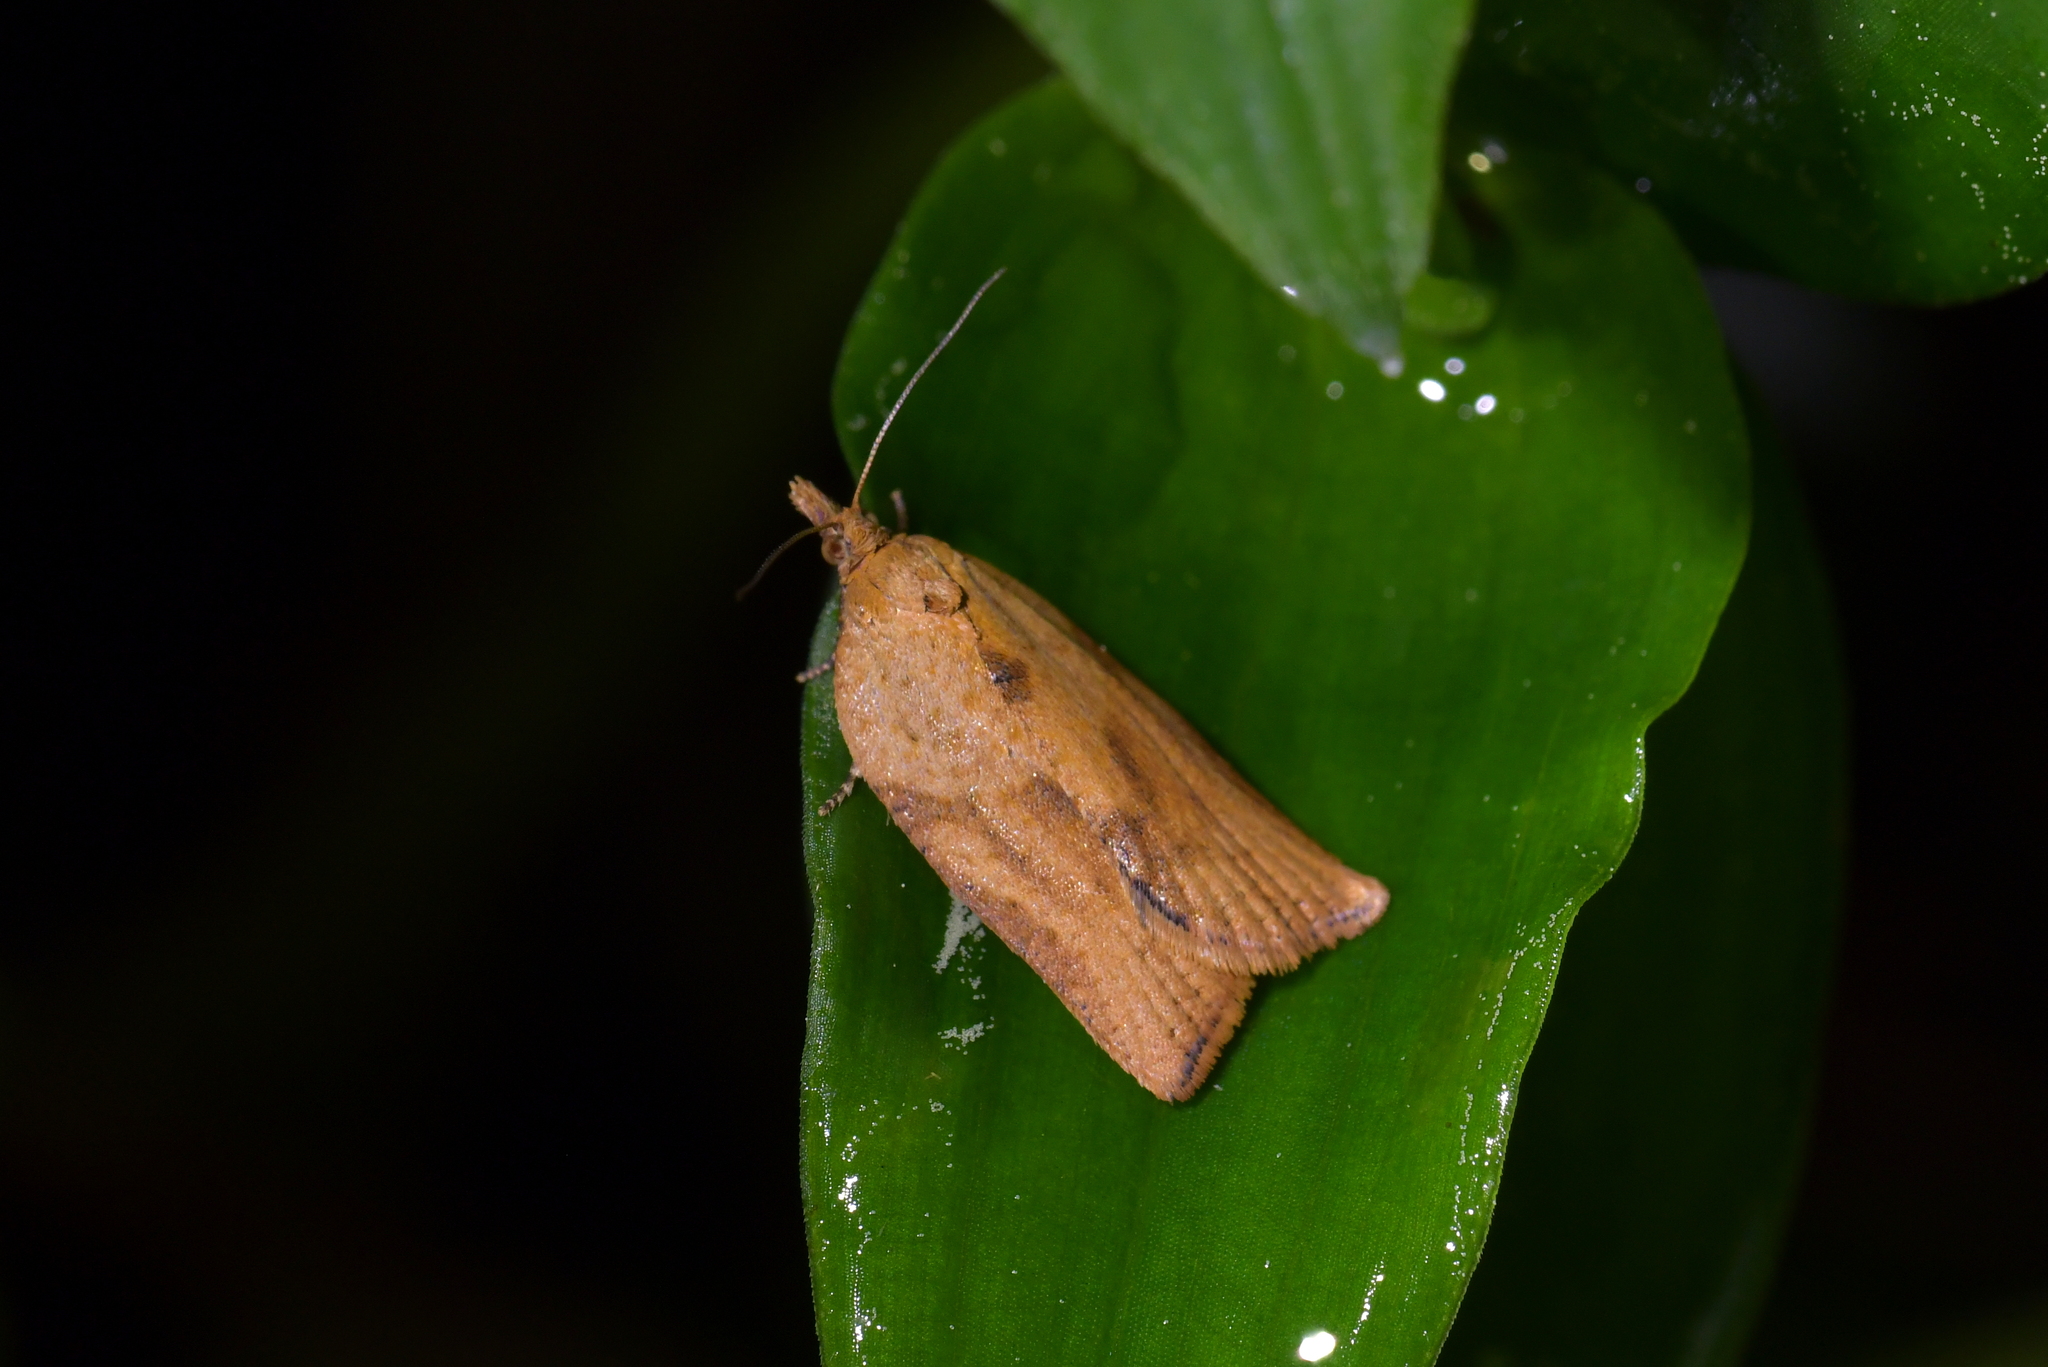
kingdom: Animalia
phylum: Arthropoda
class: Insecta
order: Lepidoptera
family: Tortricidae
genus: Epiphyas
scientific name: Epiphyas postvittana
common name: Light brown apple moth
